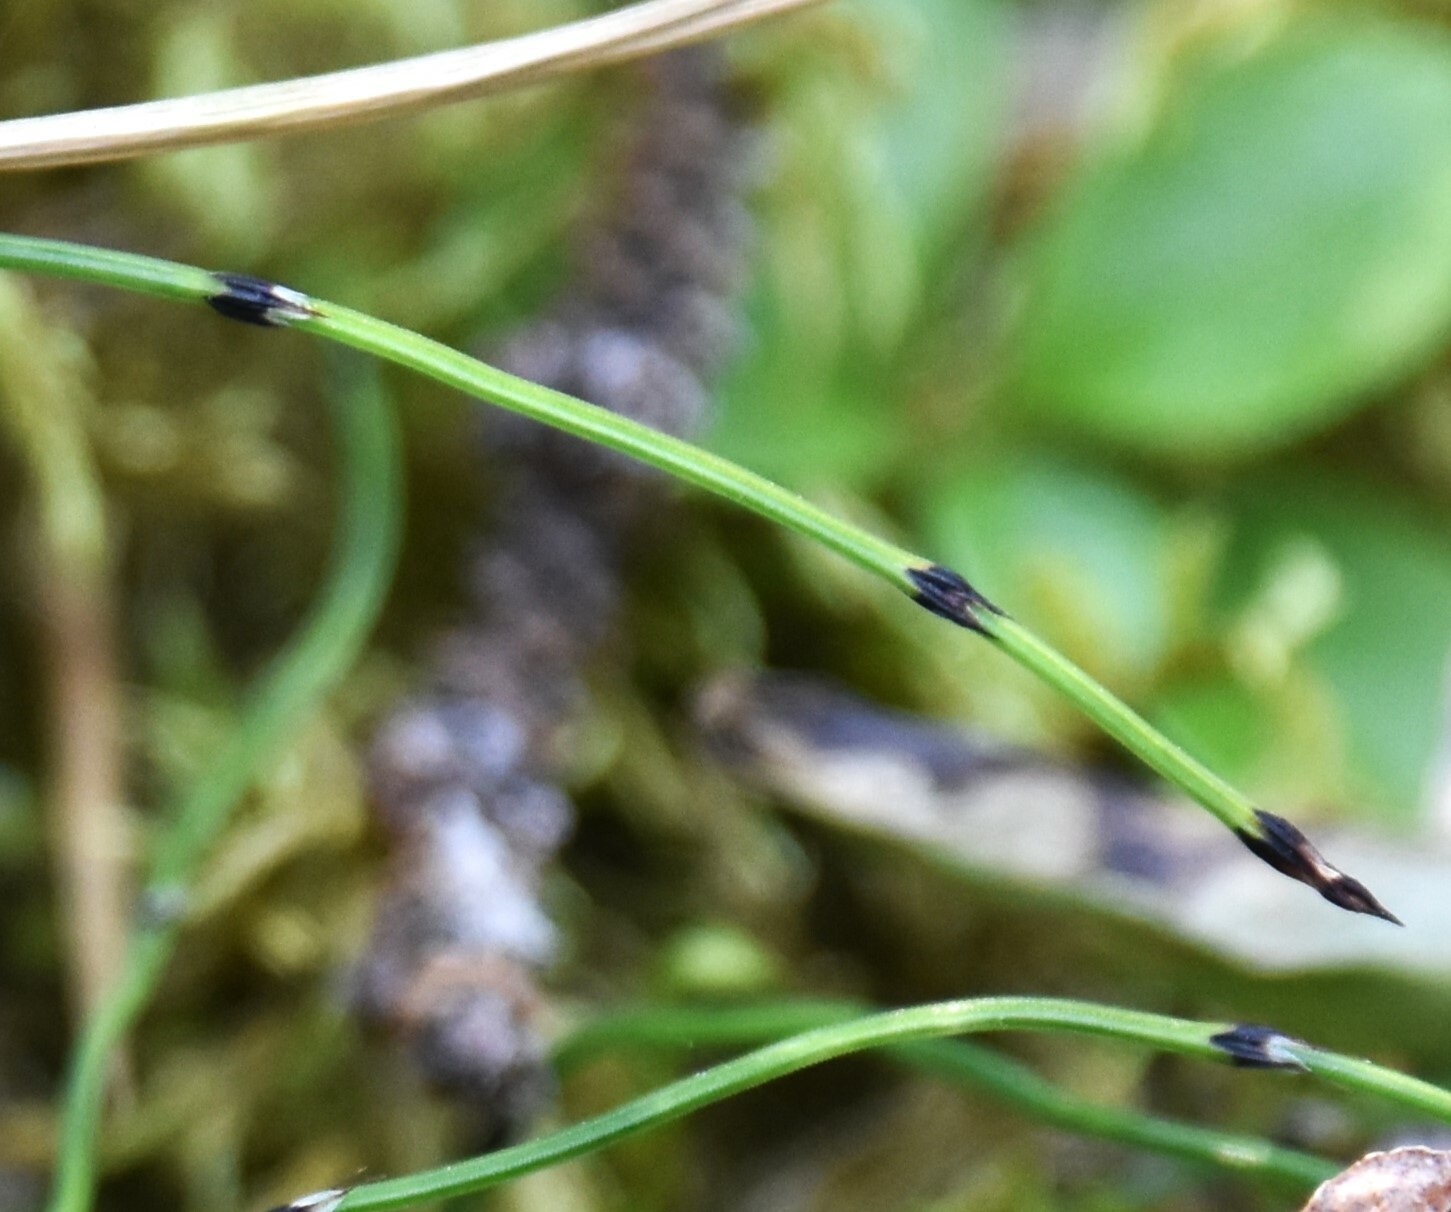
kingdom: Plantae
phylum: Tracheophyta
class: Polypodiopsida
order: Equisetales
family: Equisetaceae
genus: Equisetum
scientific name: Equisetum scirpoides
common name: Delicate horsetail
